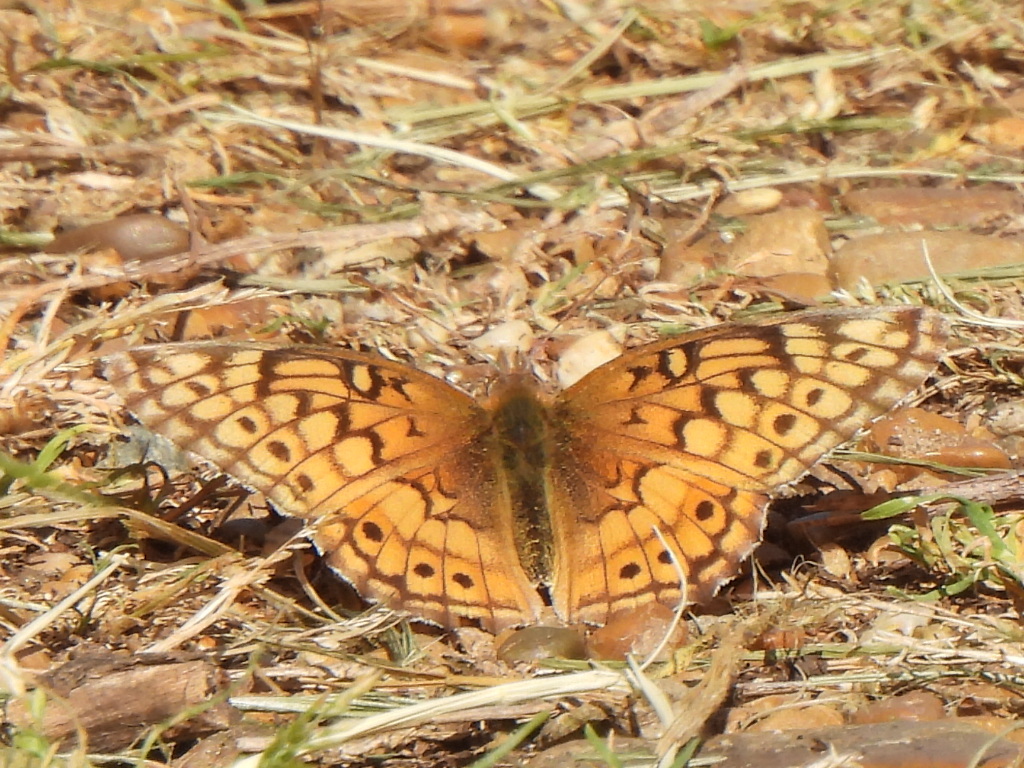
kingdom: Animalia
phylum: Arthropoda
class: Insecta
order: Lepidoptera
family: Nymphalidae
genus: Euptoieta
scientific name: Euptoieta claudia
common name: Variegated fritillary
